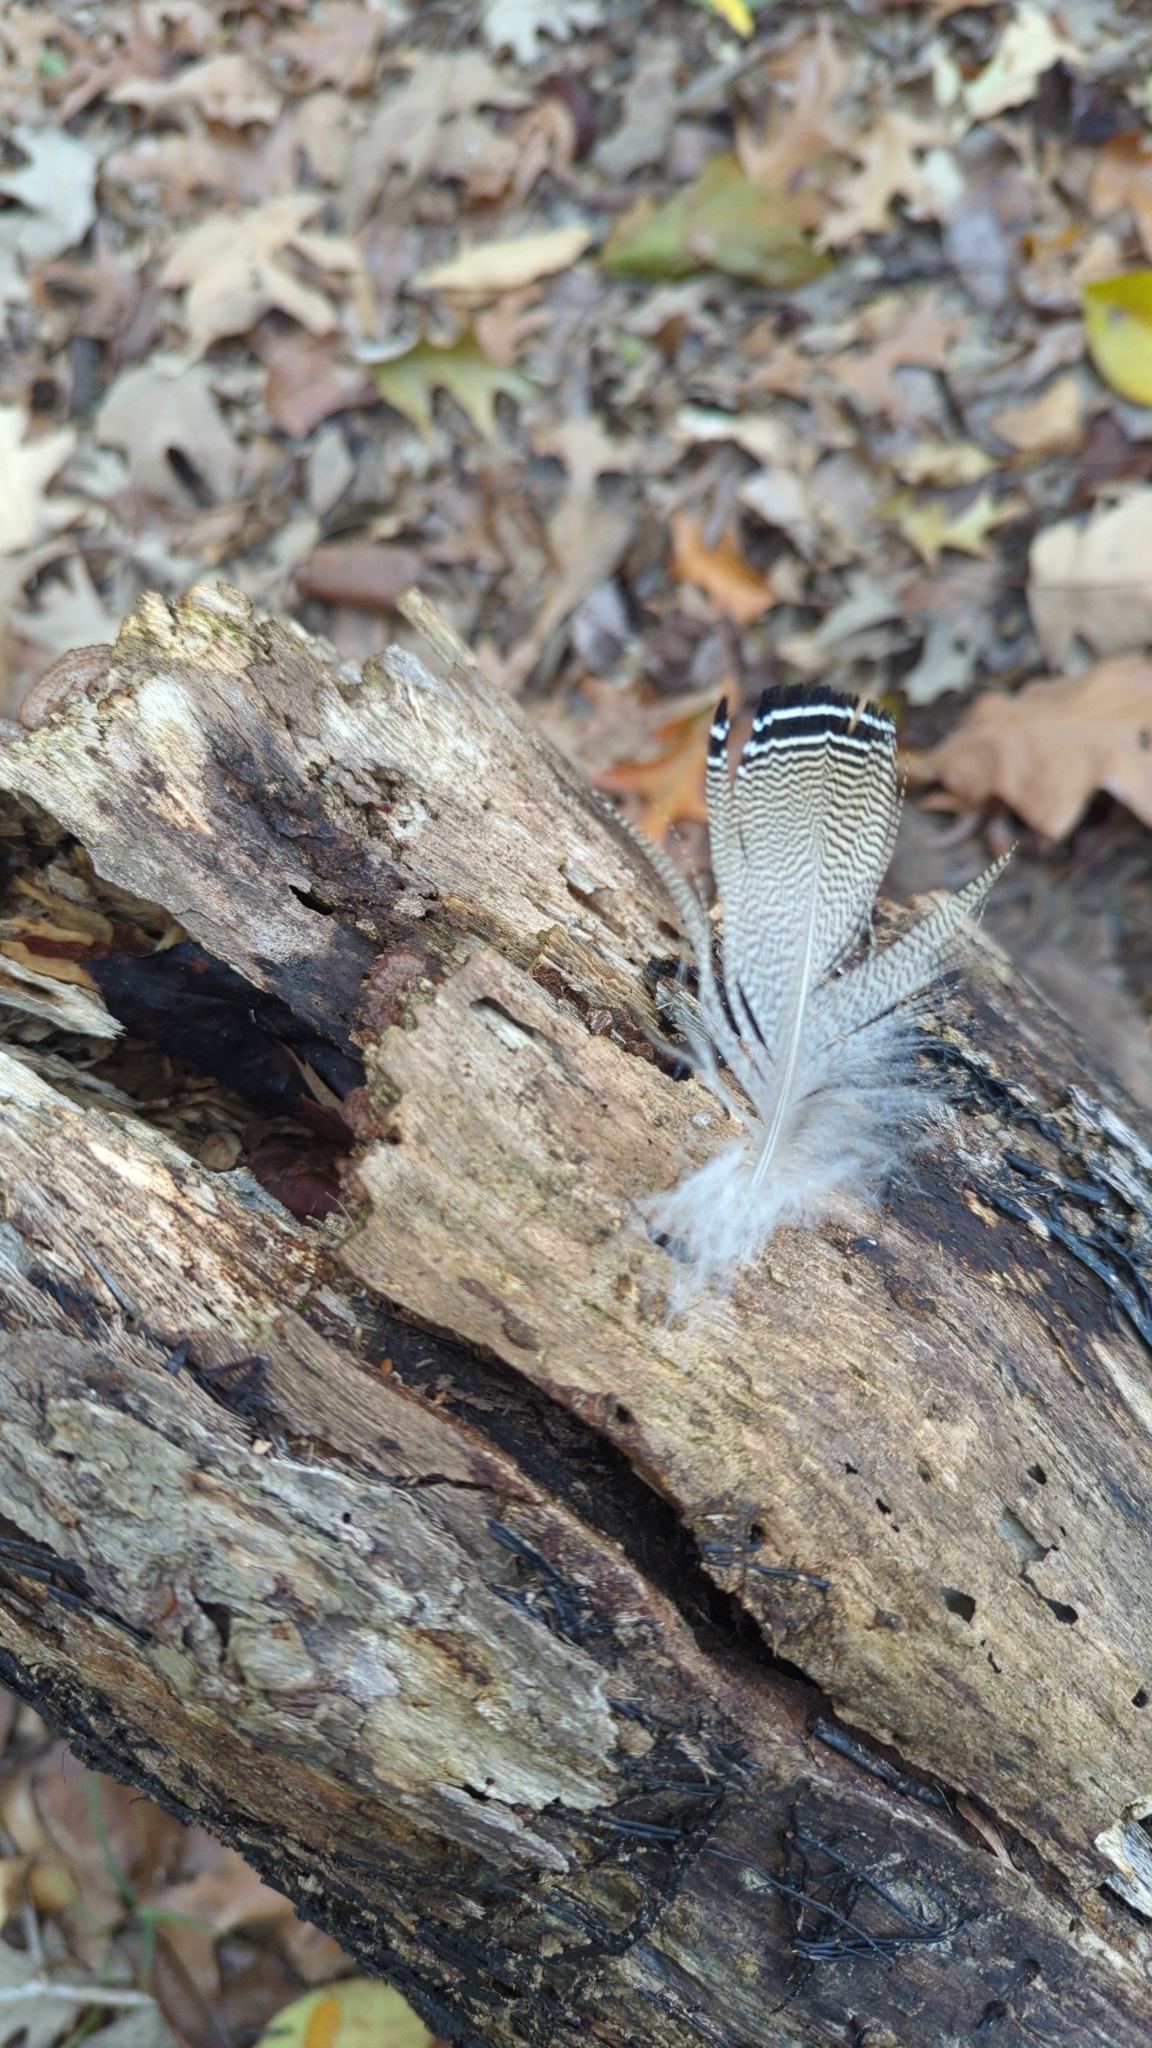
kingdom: Animalia
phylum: Chordata
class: Aves
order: Anseriformes
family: Anatidae
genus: Aix
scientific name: Aix sponsa
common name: Wood duck
